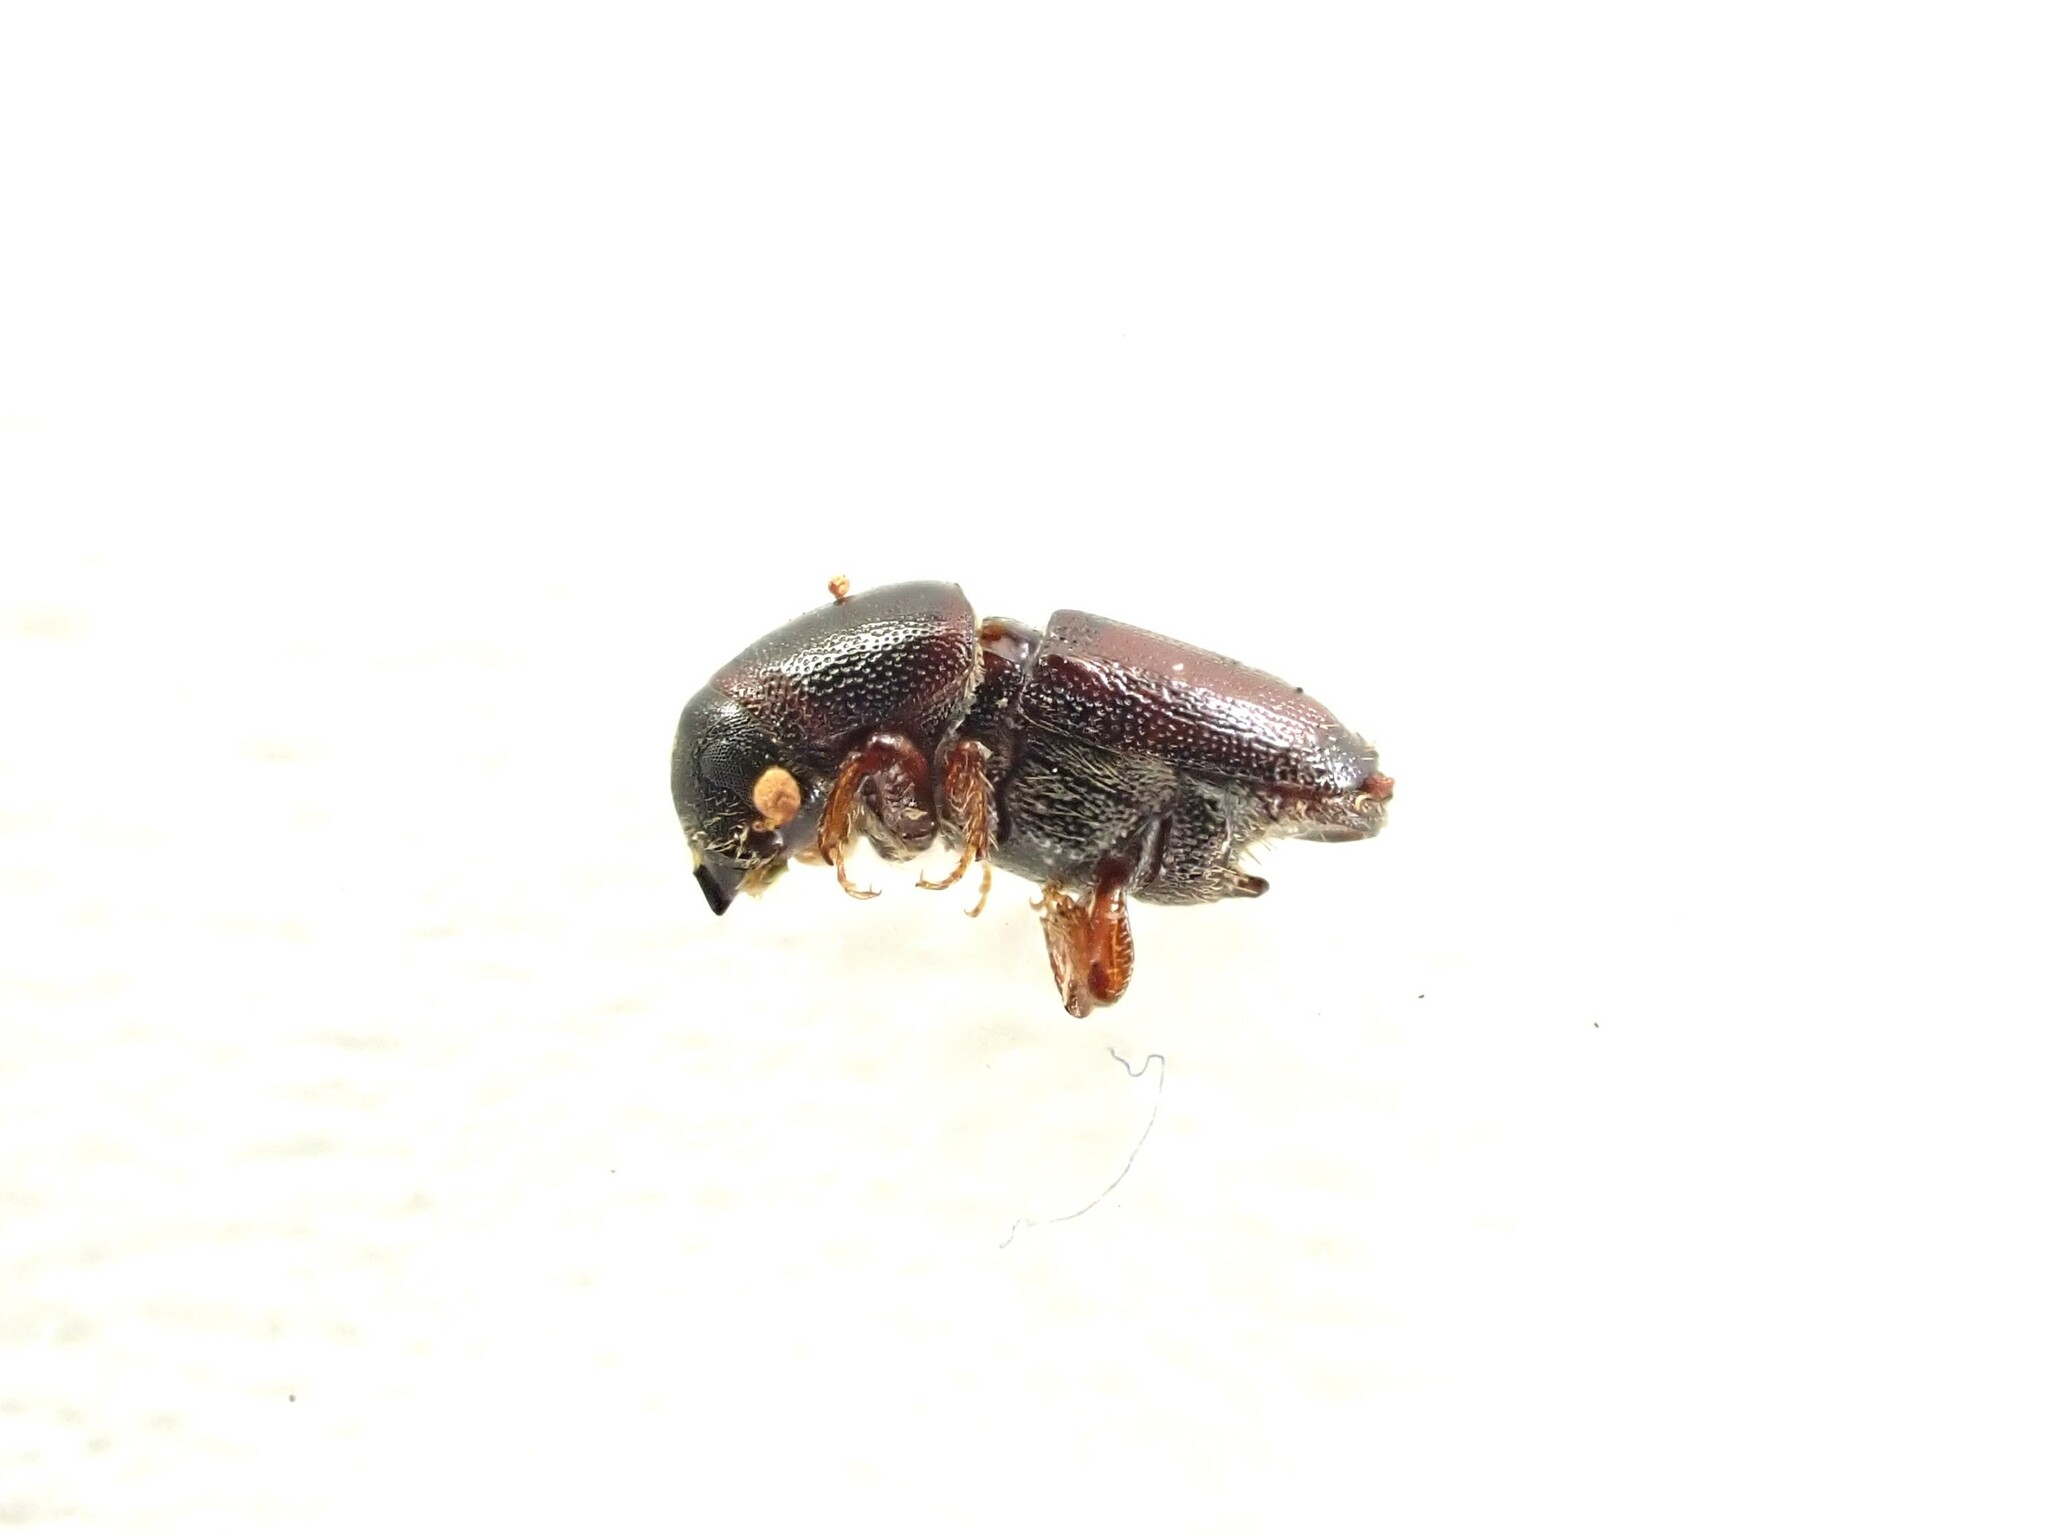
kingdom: Animalia
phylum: Arthropoda
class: Insecta
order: Coleoptera
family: Curculionidae
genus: Scolytus
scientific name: Scolytus multistriatus
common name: European elm bark beetle
